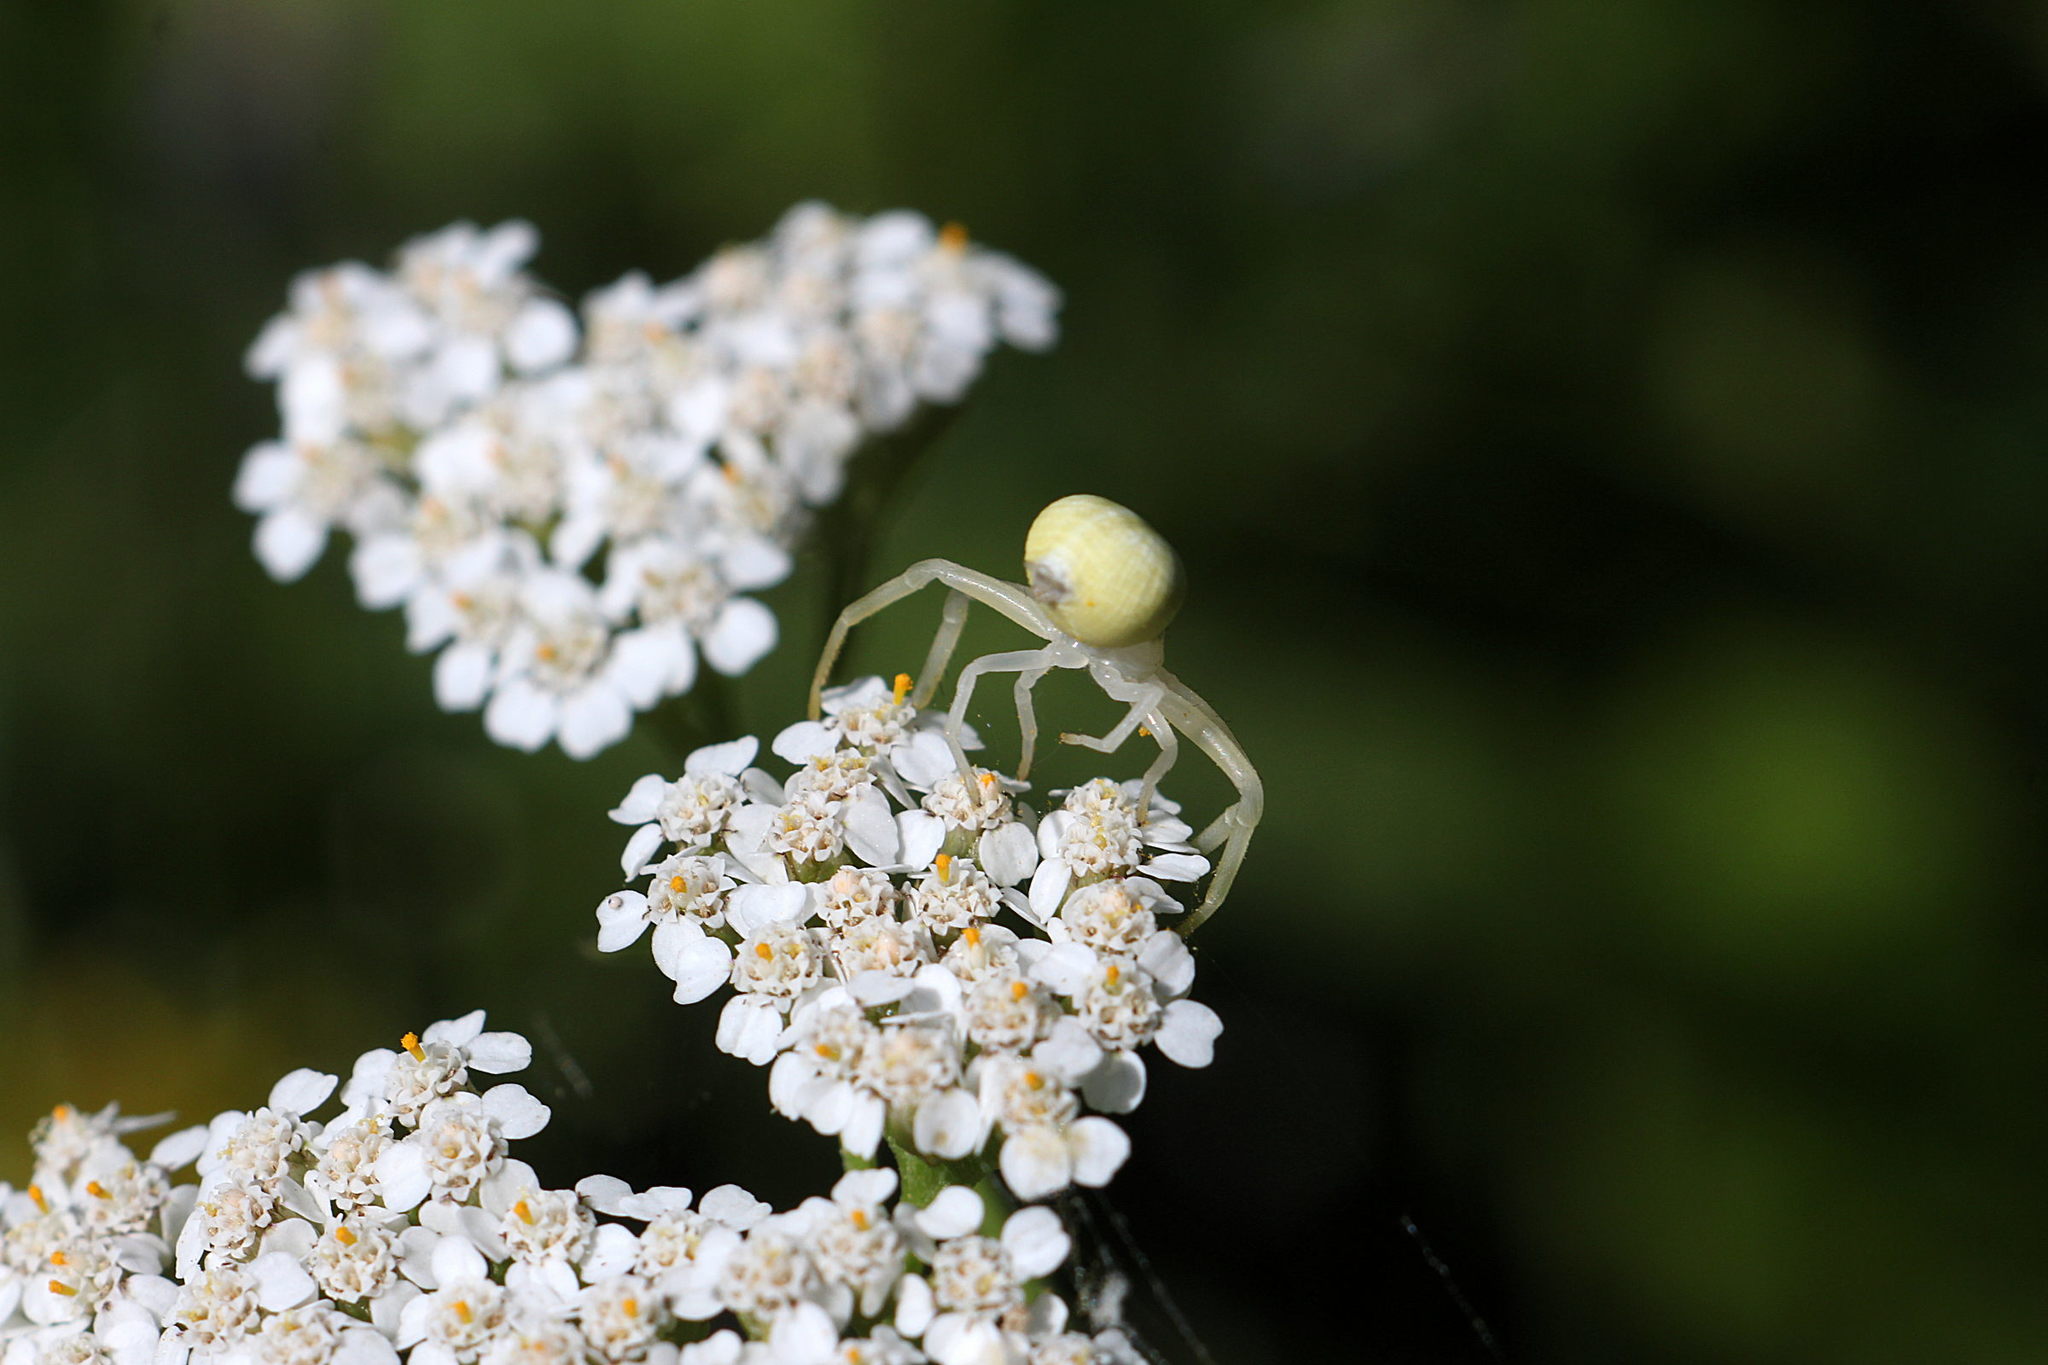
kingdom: Animalia
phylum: Arthropoda
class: Arachnida
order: Araneae
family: Thomisidae
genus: Misumena
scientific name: Misumena vatia
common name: Goldenrod crab spider
